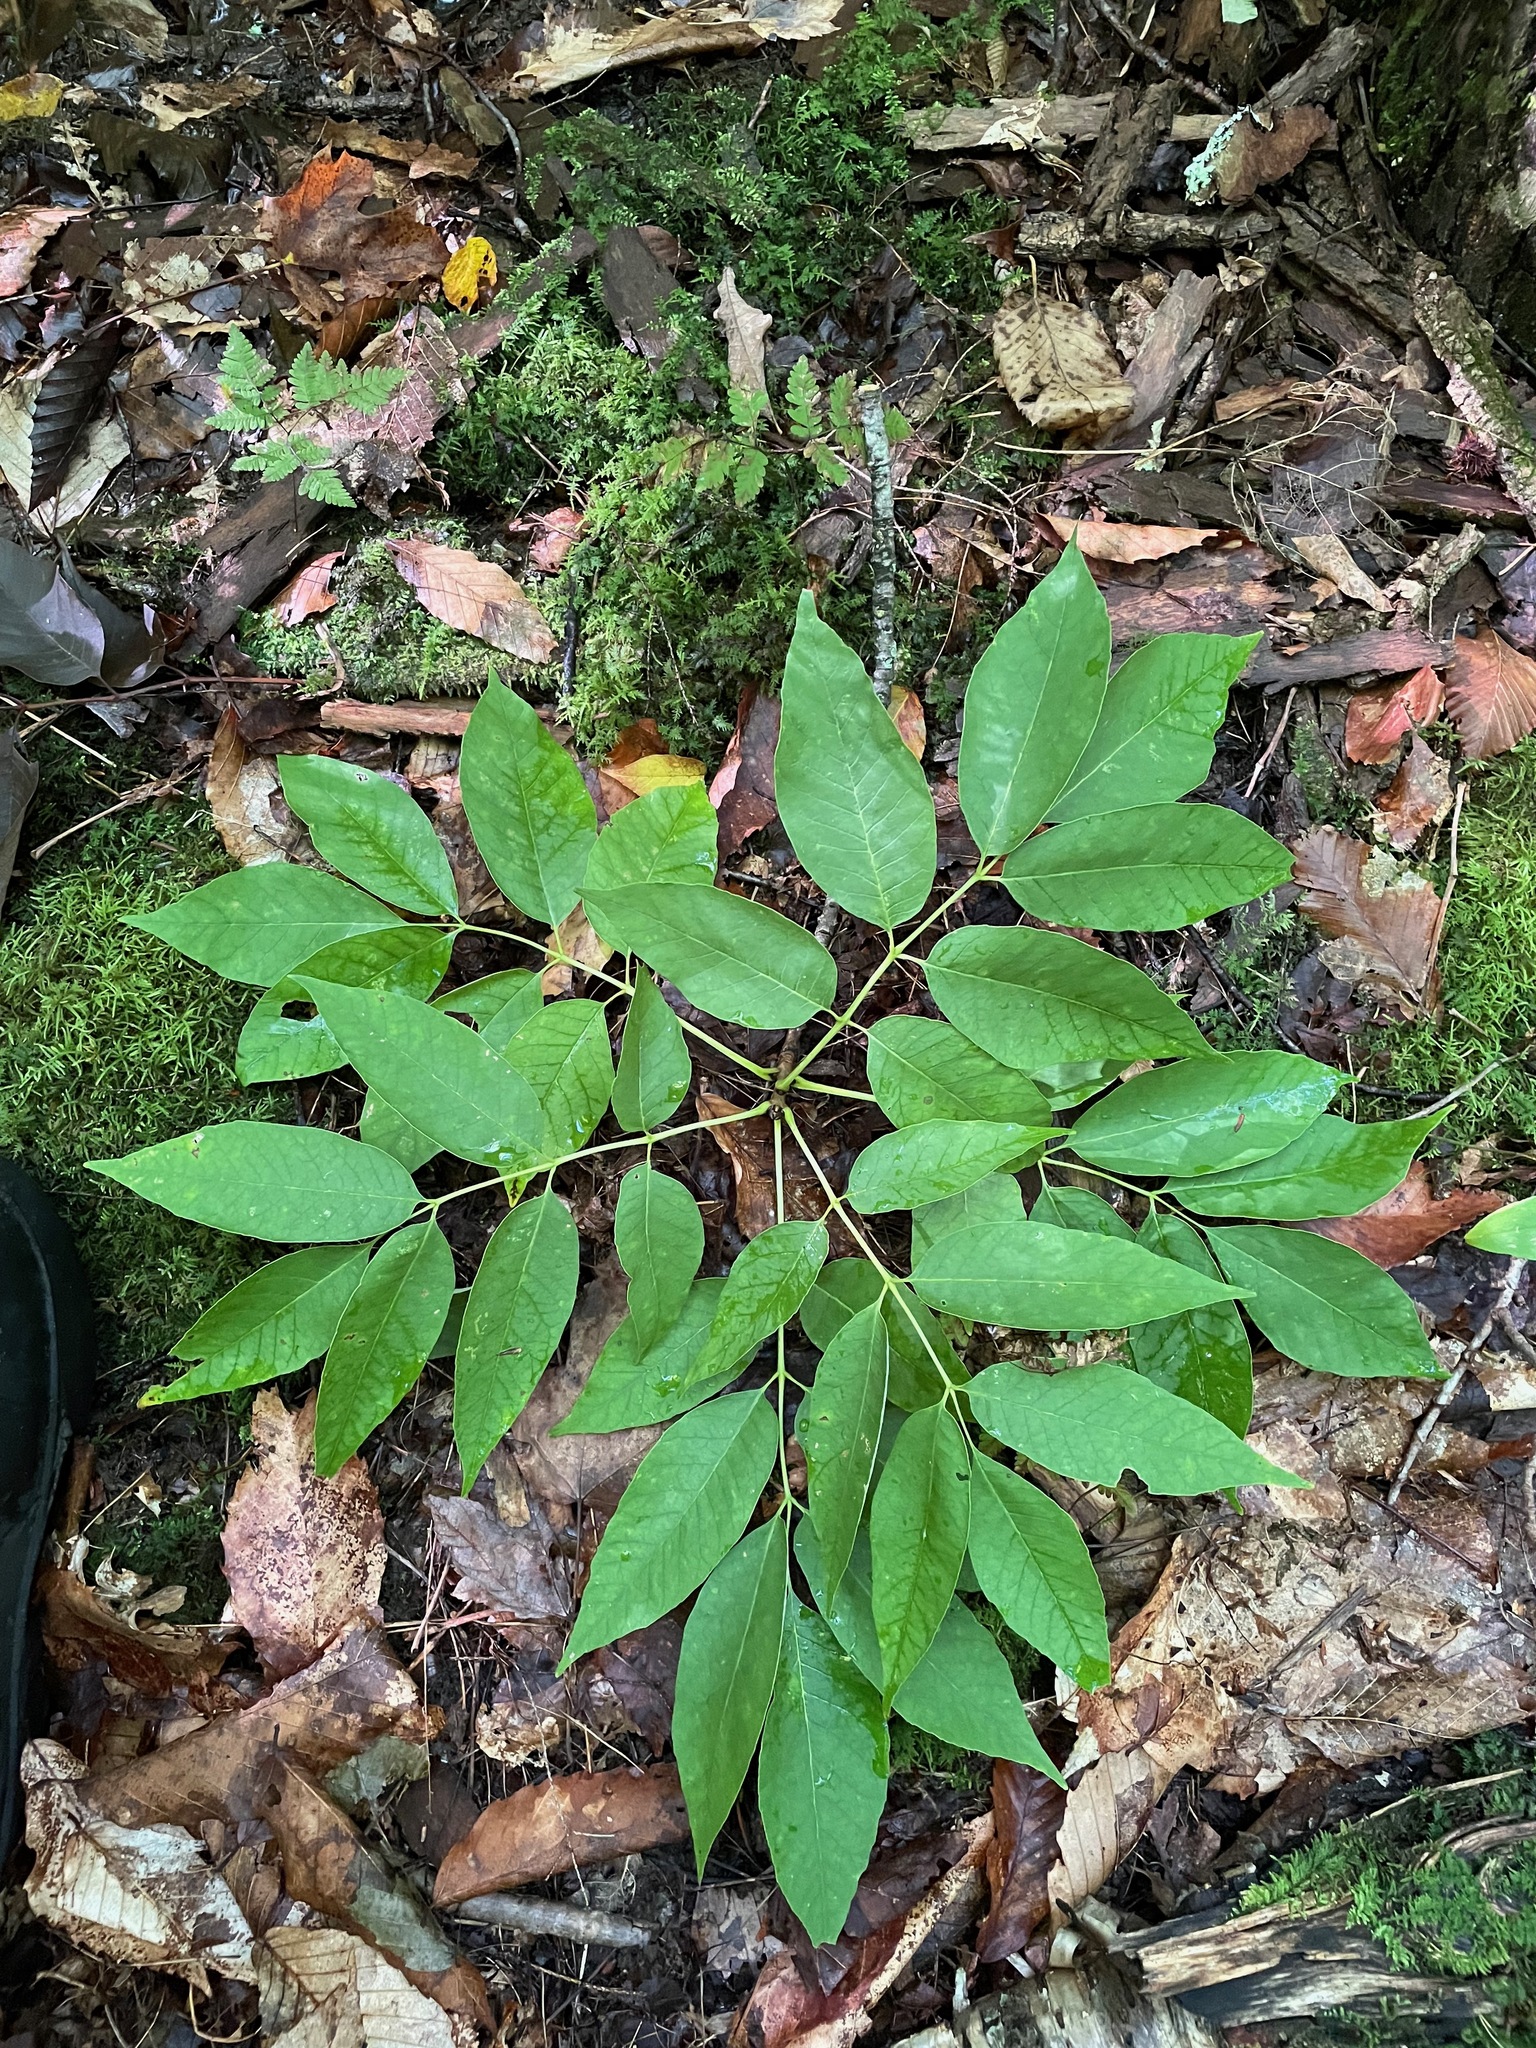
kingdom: Plantae
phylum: Tracheophyta
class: Magnoliopsida
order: Lamiales
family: Oleaceae
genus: Fraxinus
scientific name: Fraxinus americana
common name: White ash
